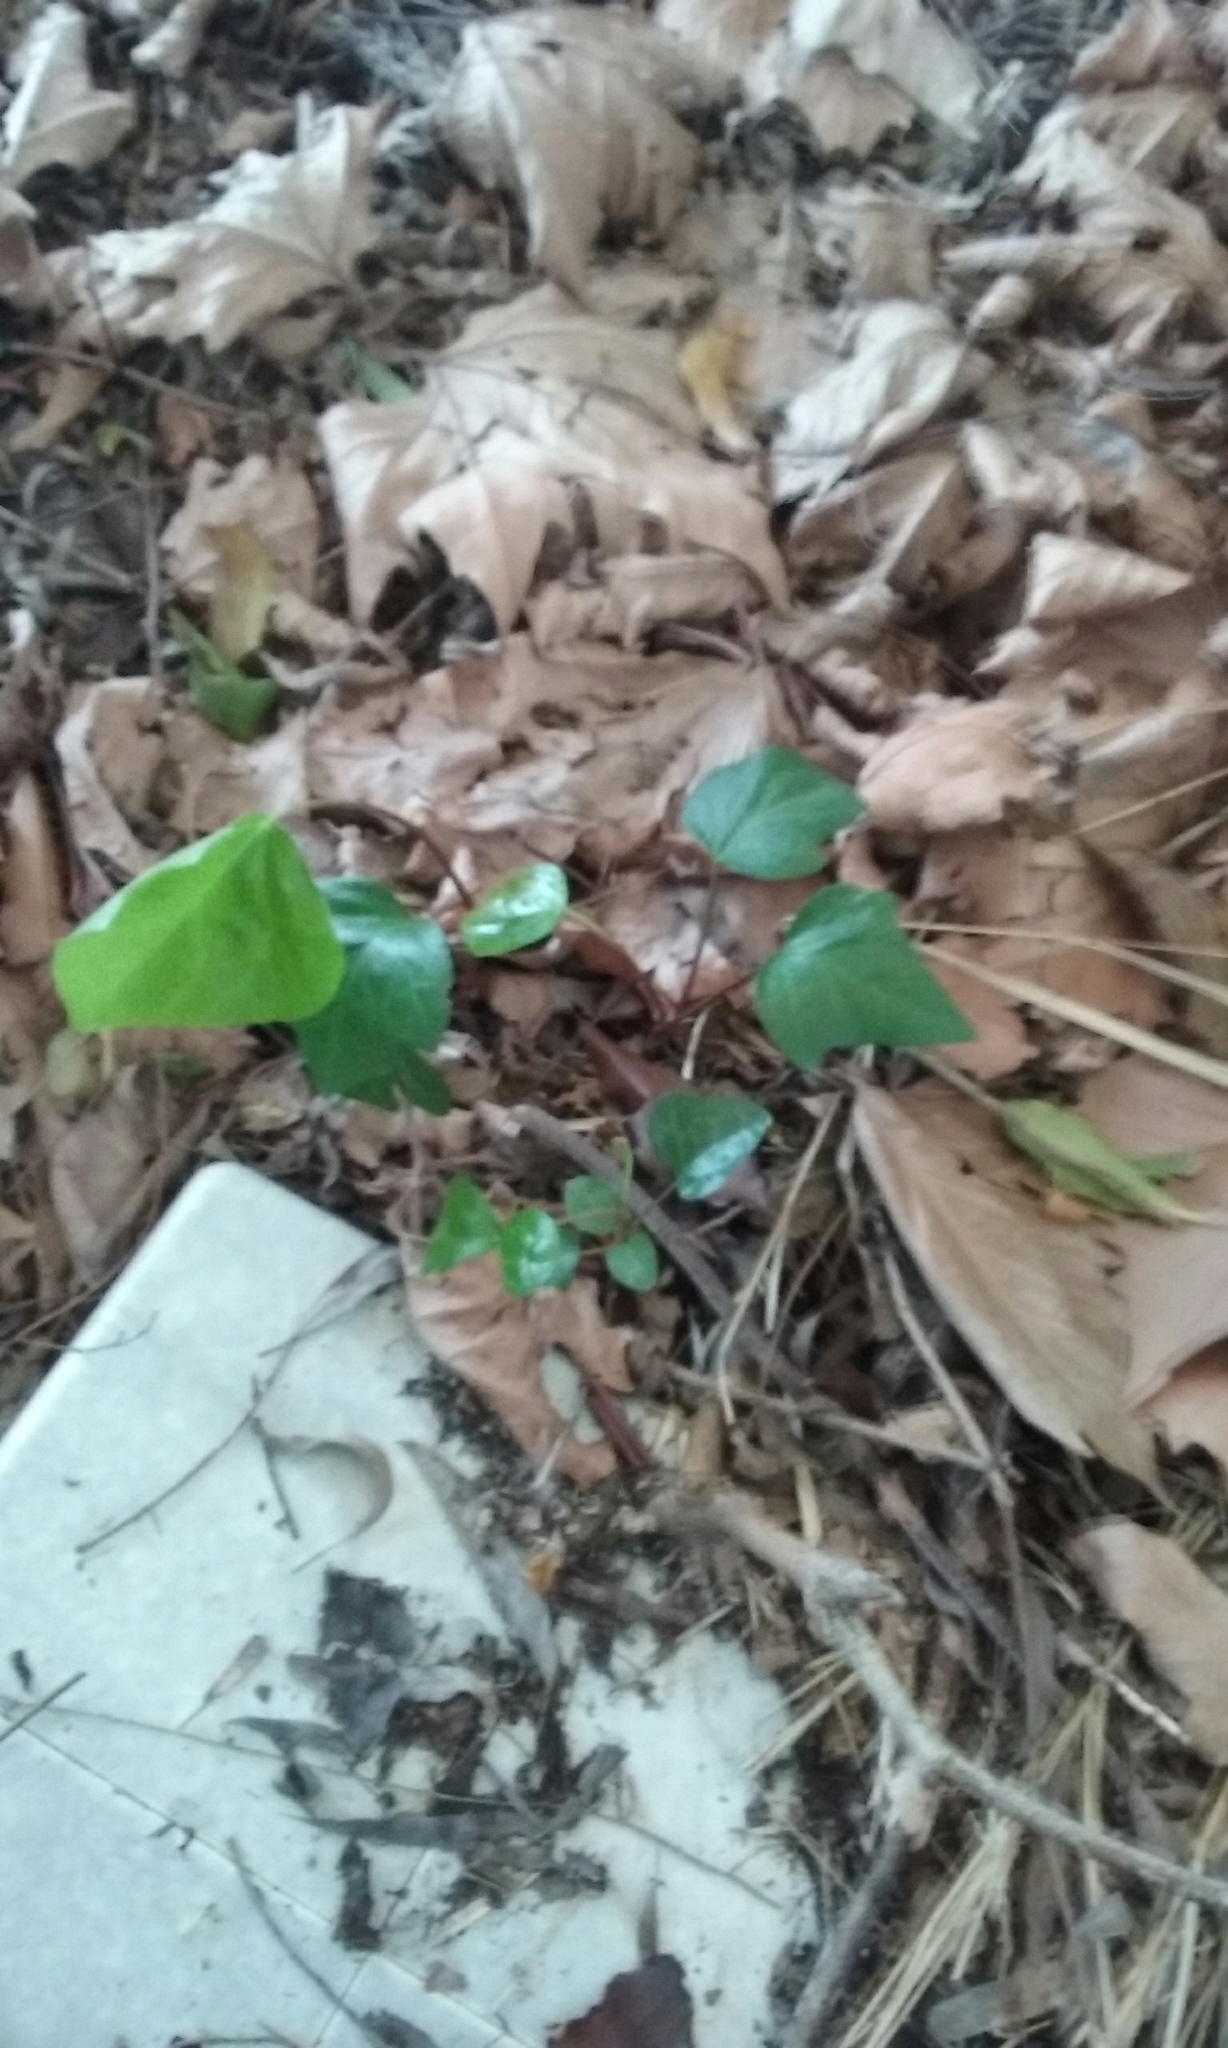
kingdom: Plantae
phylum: Tracheophyta
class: Magnoliopsida
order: Apiales
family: Araliaceae
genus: Hedera
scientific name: Hedera helix
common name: Ivy
